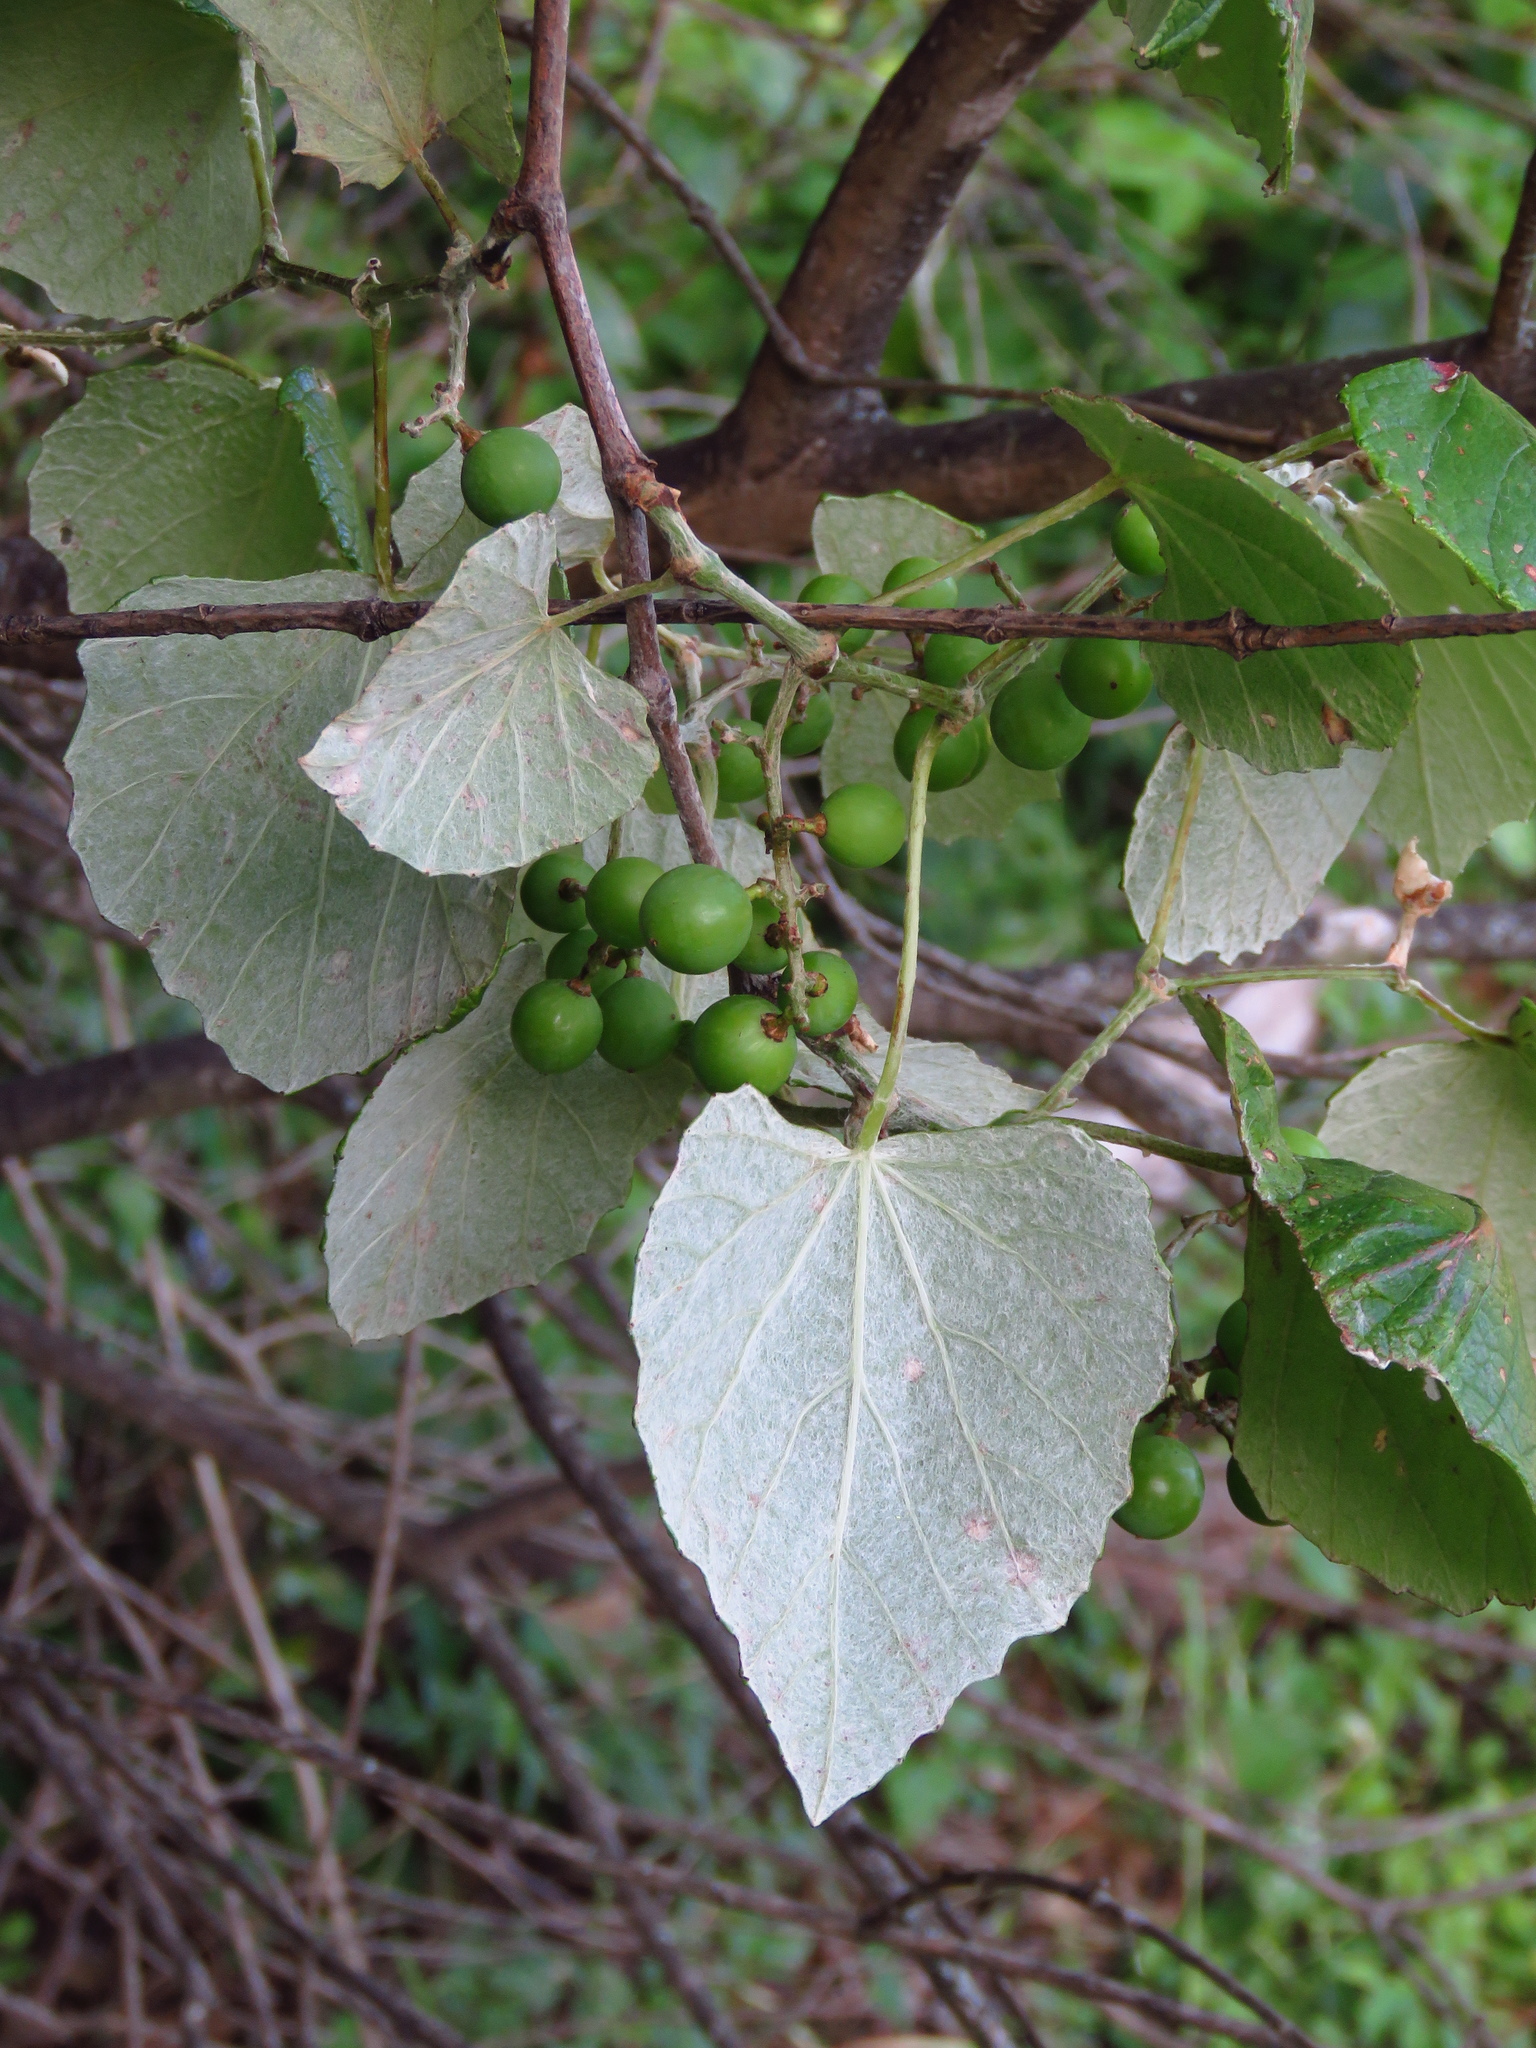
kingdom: Plantae
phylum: Tracheophyta
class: Magnoliopsida
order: Vitales
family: Vitaceae
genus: Vitis
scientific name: Vitis mustangensis
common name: Mustang grape
